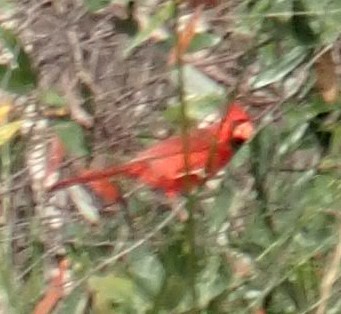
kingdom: Animalia
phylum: Chordata
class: Aves
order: Passeriformes
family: Cardinalidae
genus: Cardinalis
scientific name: Cardinalis cardinalis
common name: Northern cardinal
